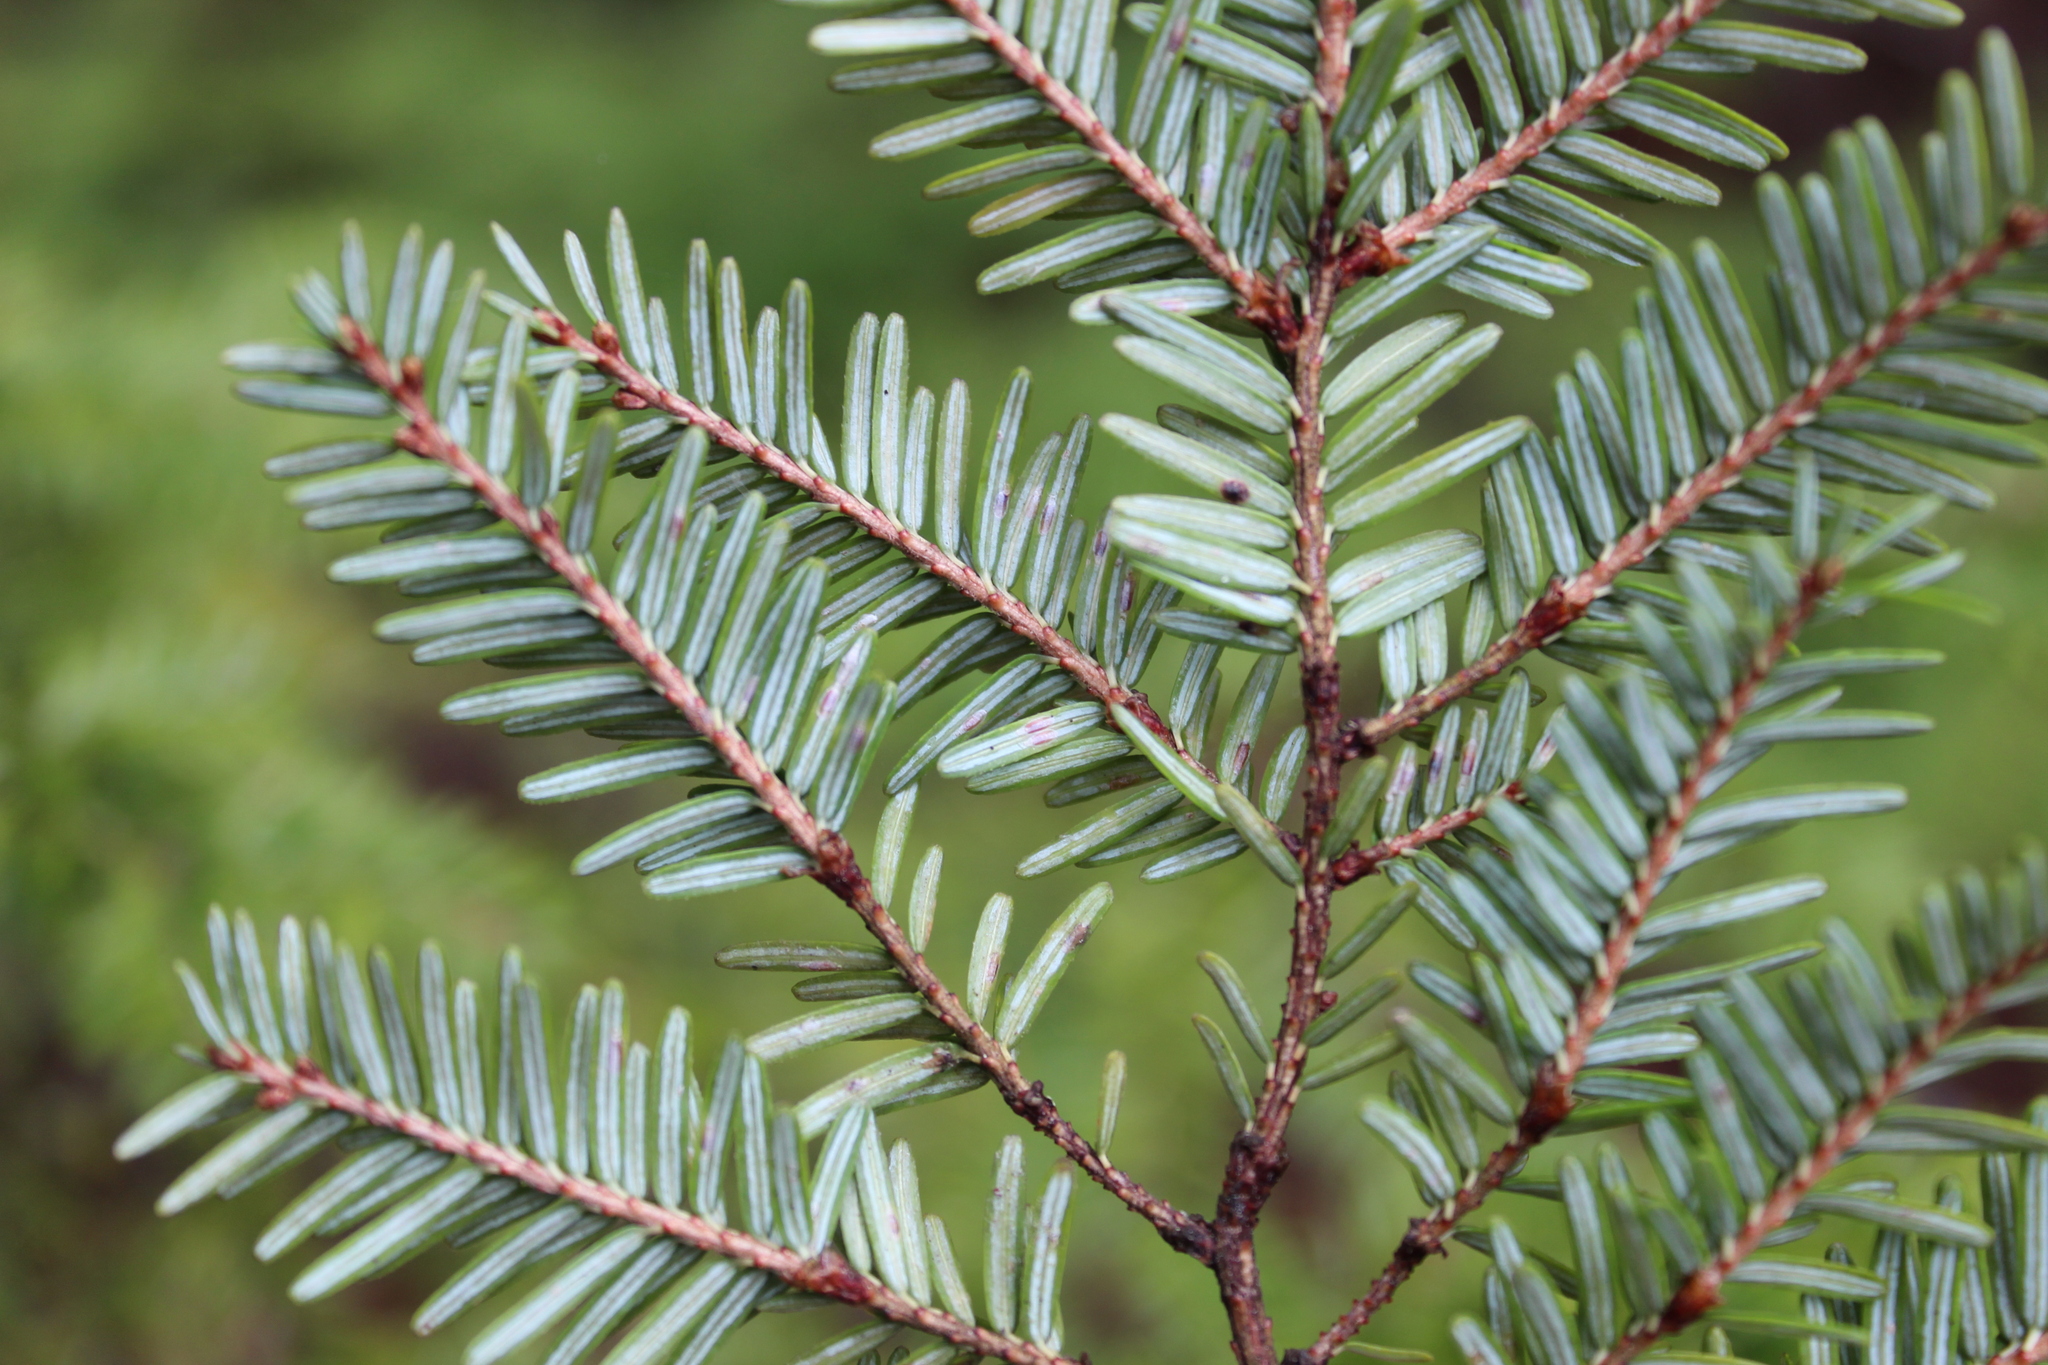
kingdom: Animalia
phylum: Arthropoda
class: Insecta
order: Hemiptera
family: Diaspididae
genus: Fiorinia
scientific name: Fiorinia externa
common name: Elongate hemlock scale
